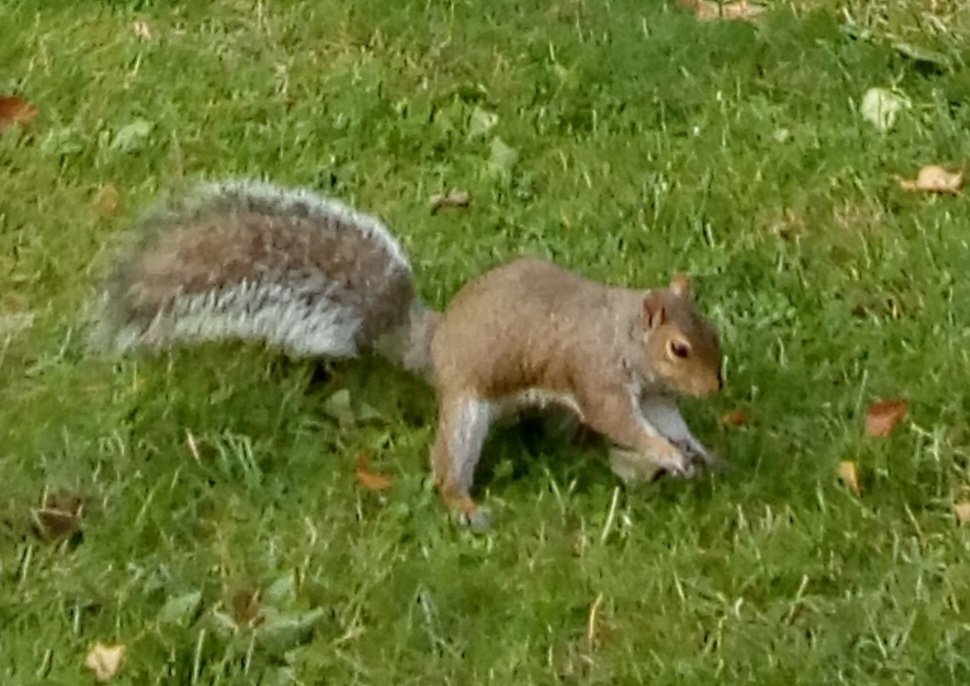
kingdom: Animalia
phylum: Chordata
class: Mammalia
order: Rodentia
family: Sciuridae
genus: Sciurus
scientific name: Sciurus carolinensis
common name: Eastern gray squirrel
